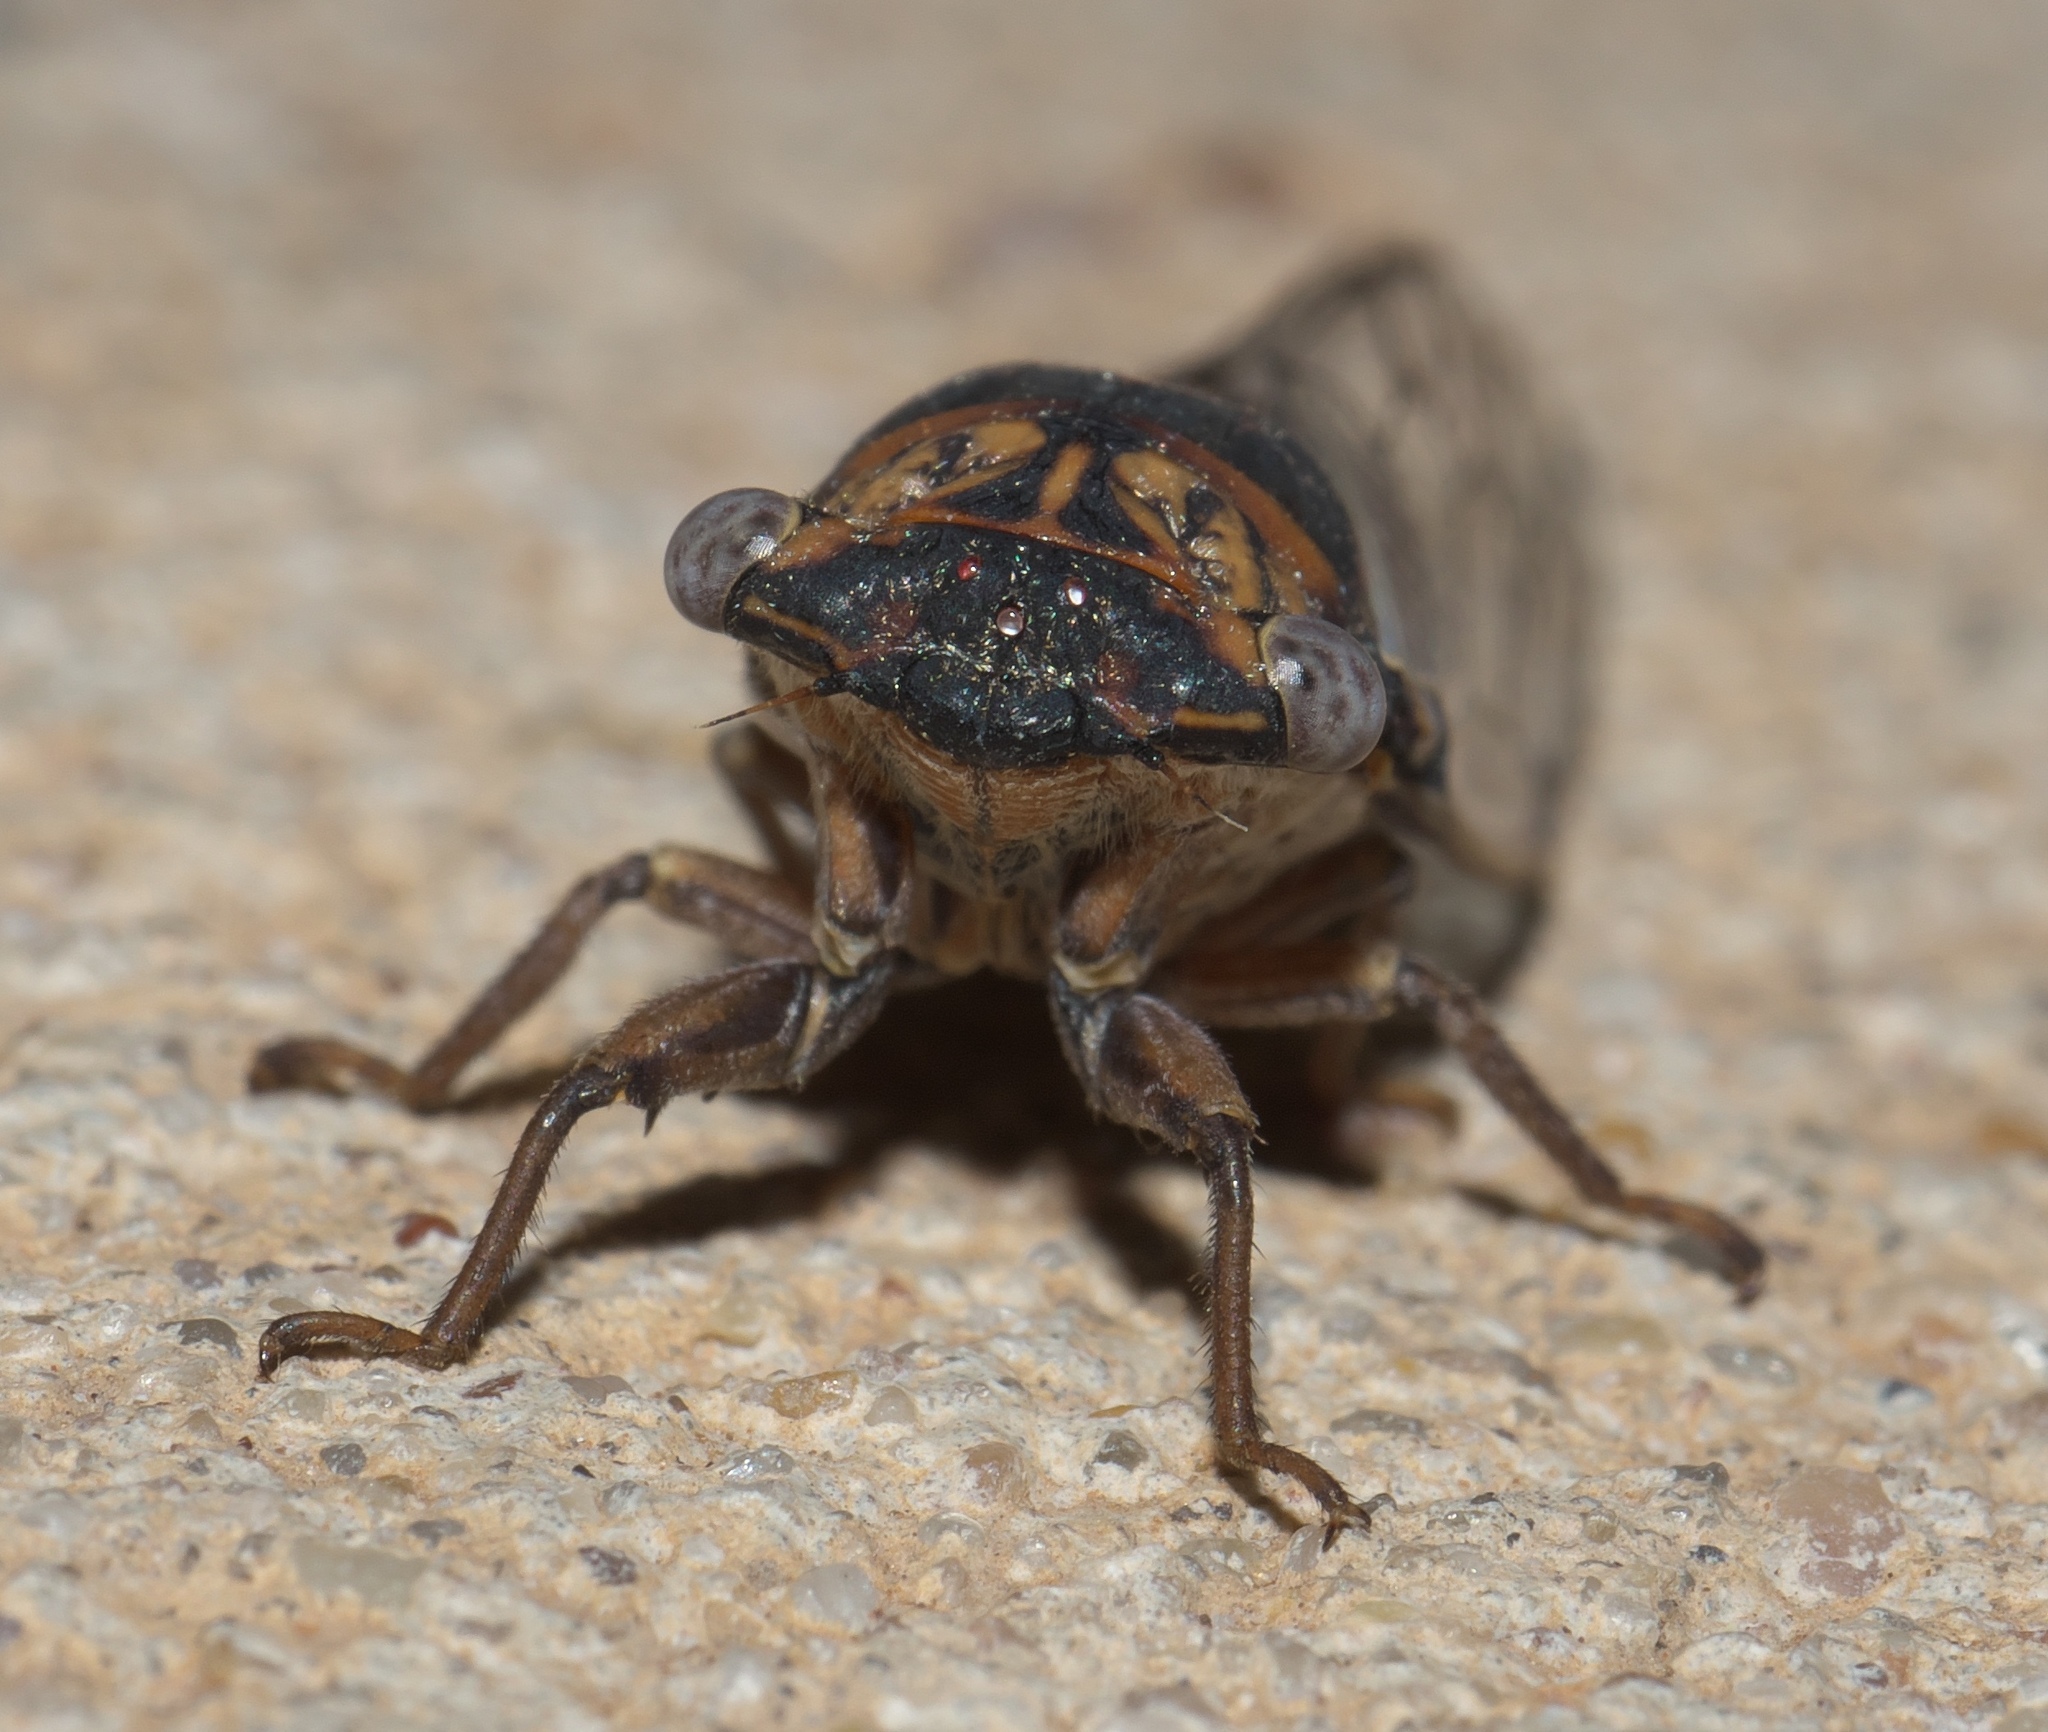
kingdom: Animalia
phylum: Arthropoda
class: Insecta
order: Hemiptera
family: Cicadidae
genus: Pacarina
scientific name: Pacarina puella
